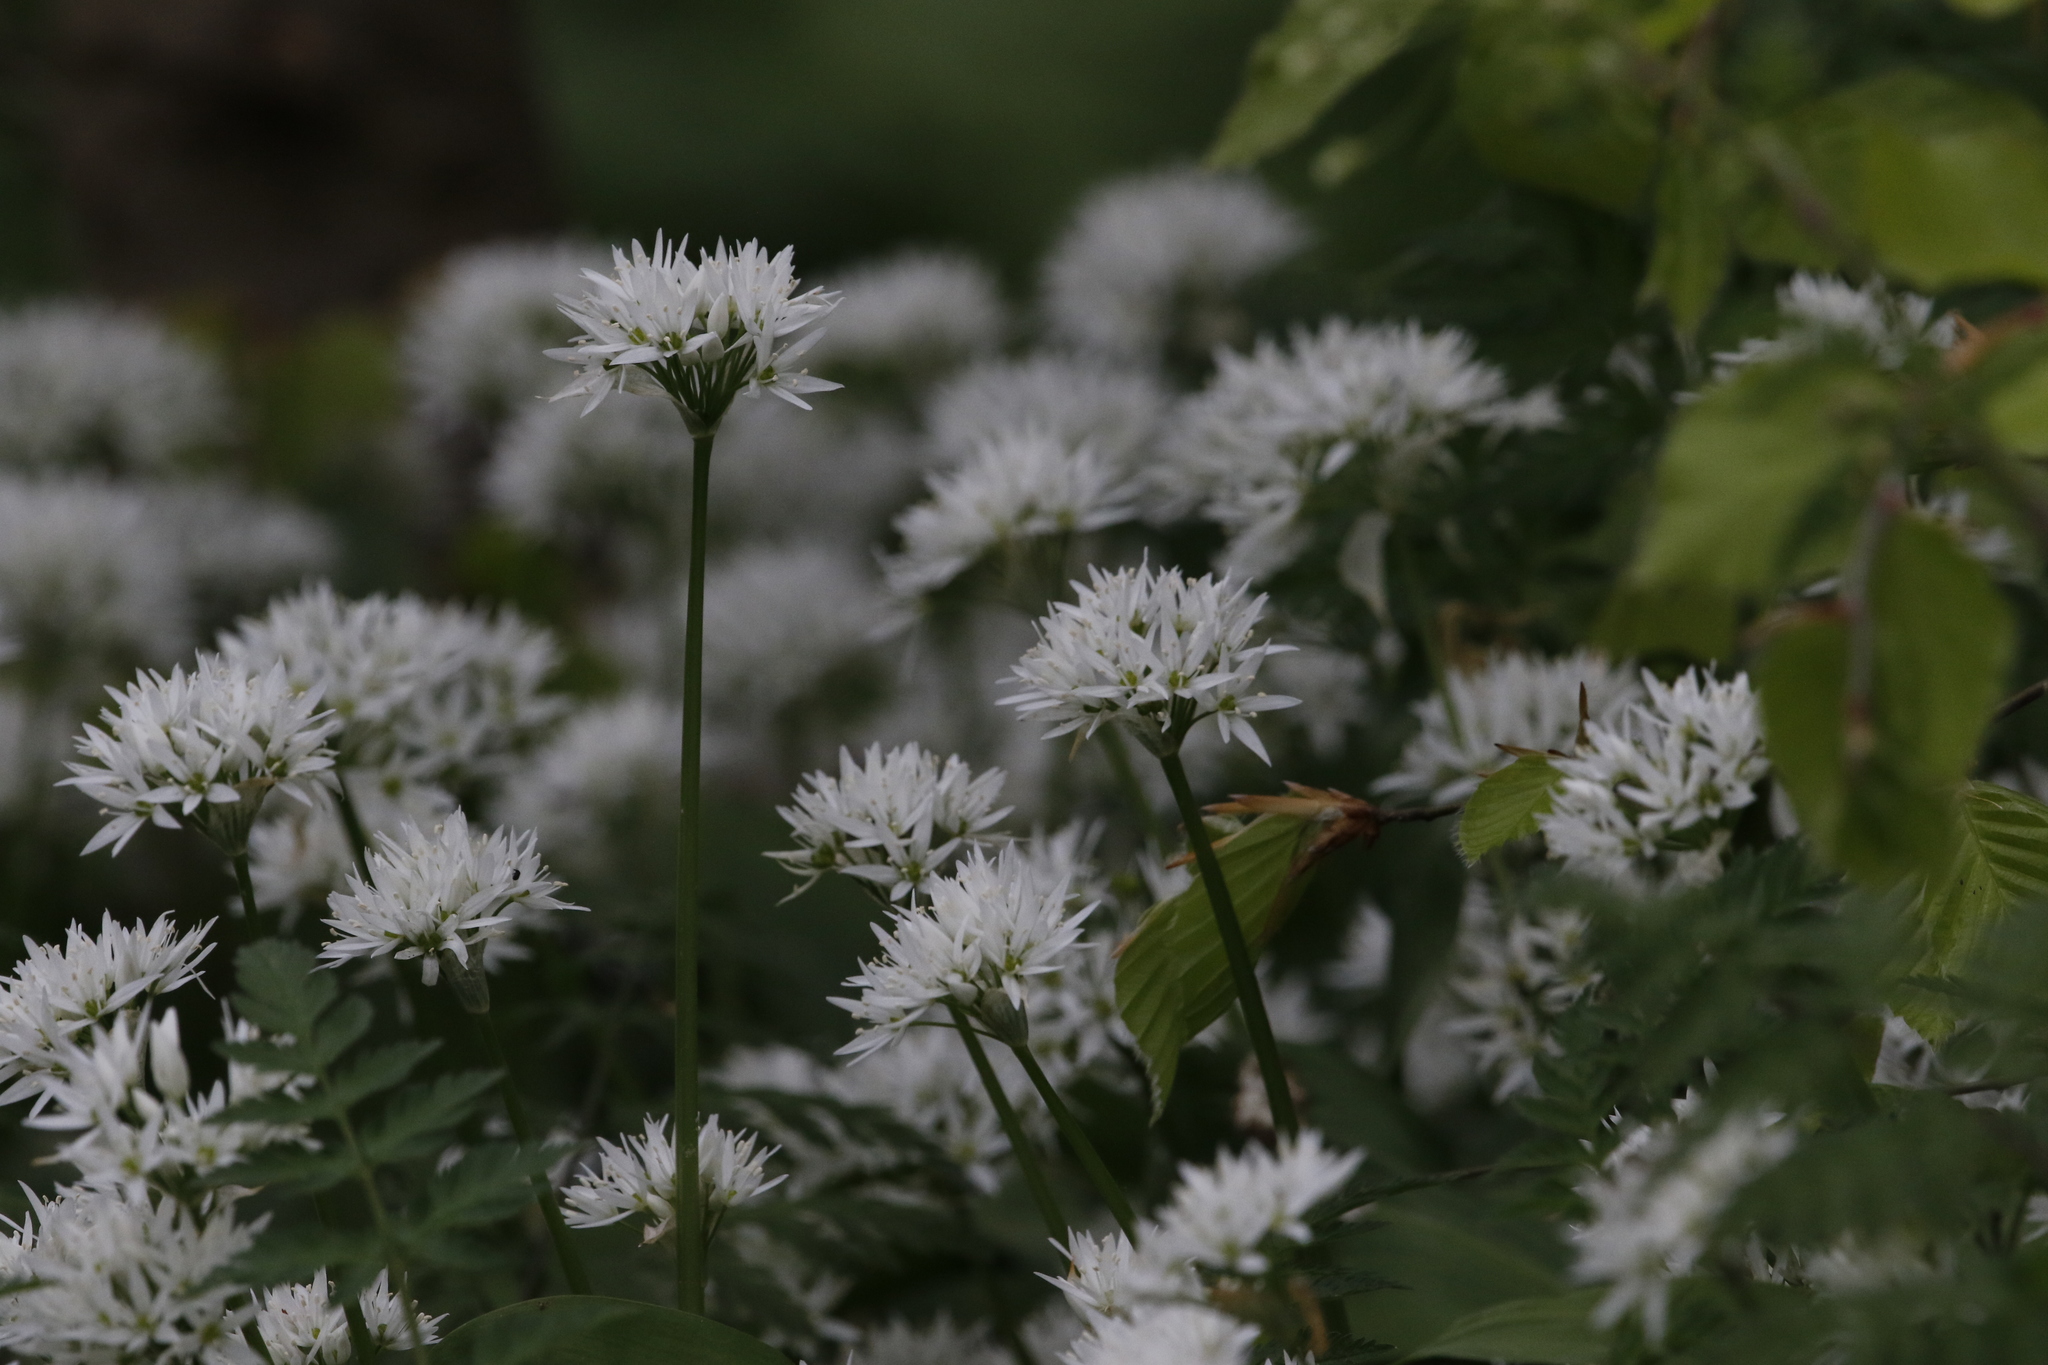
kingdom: Plantae
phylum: Tracheophyta
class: Liliopsida
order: Asparagales
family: Amaryllidaceae
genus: Allium
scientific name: Allium ursinum
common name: Ramsons
